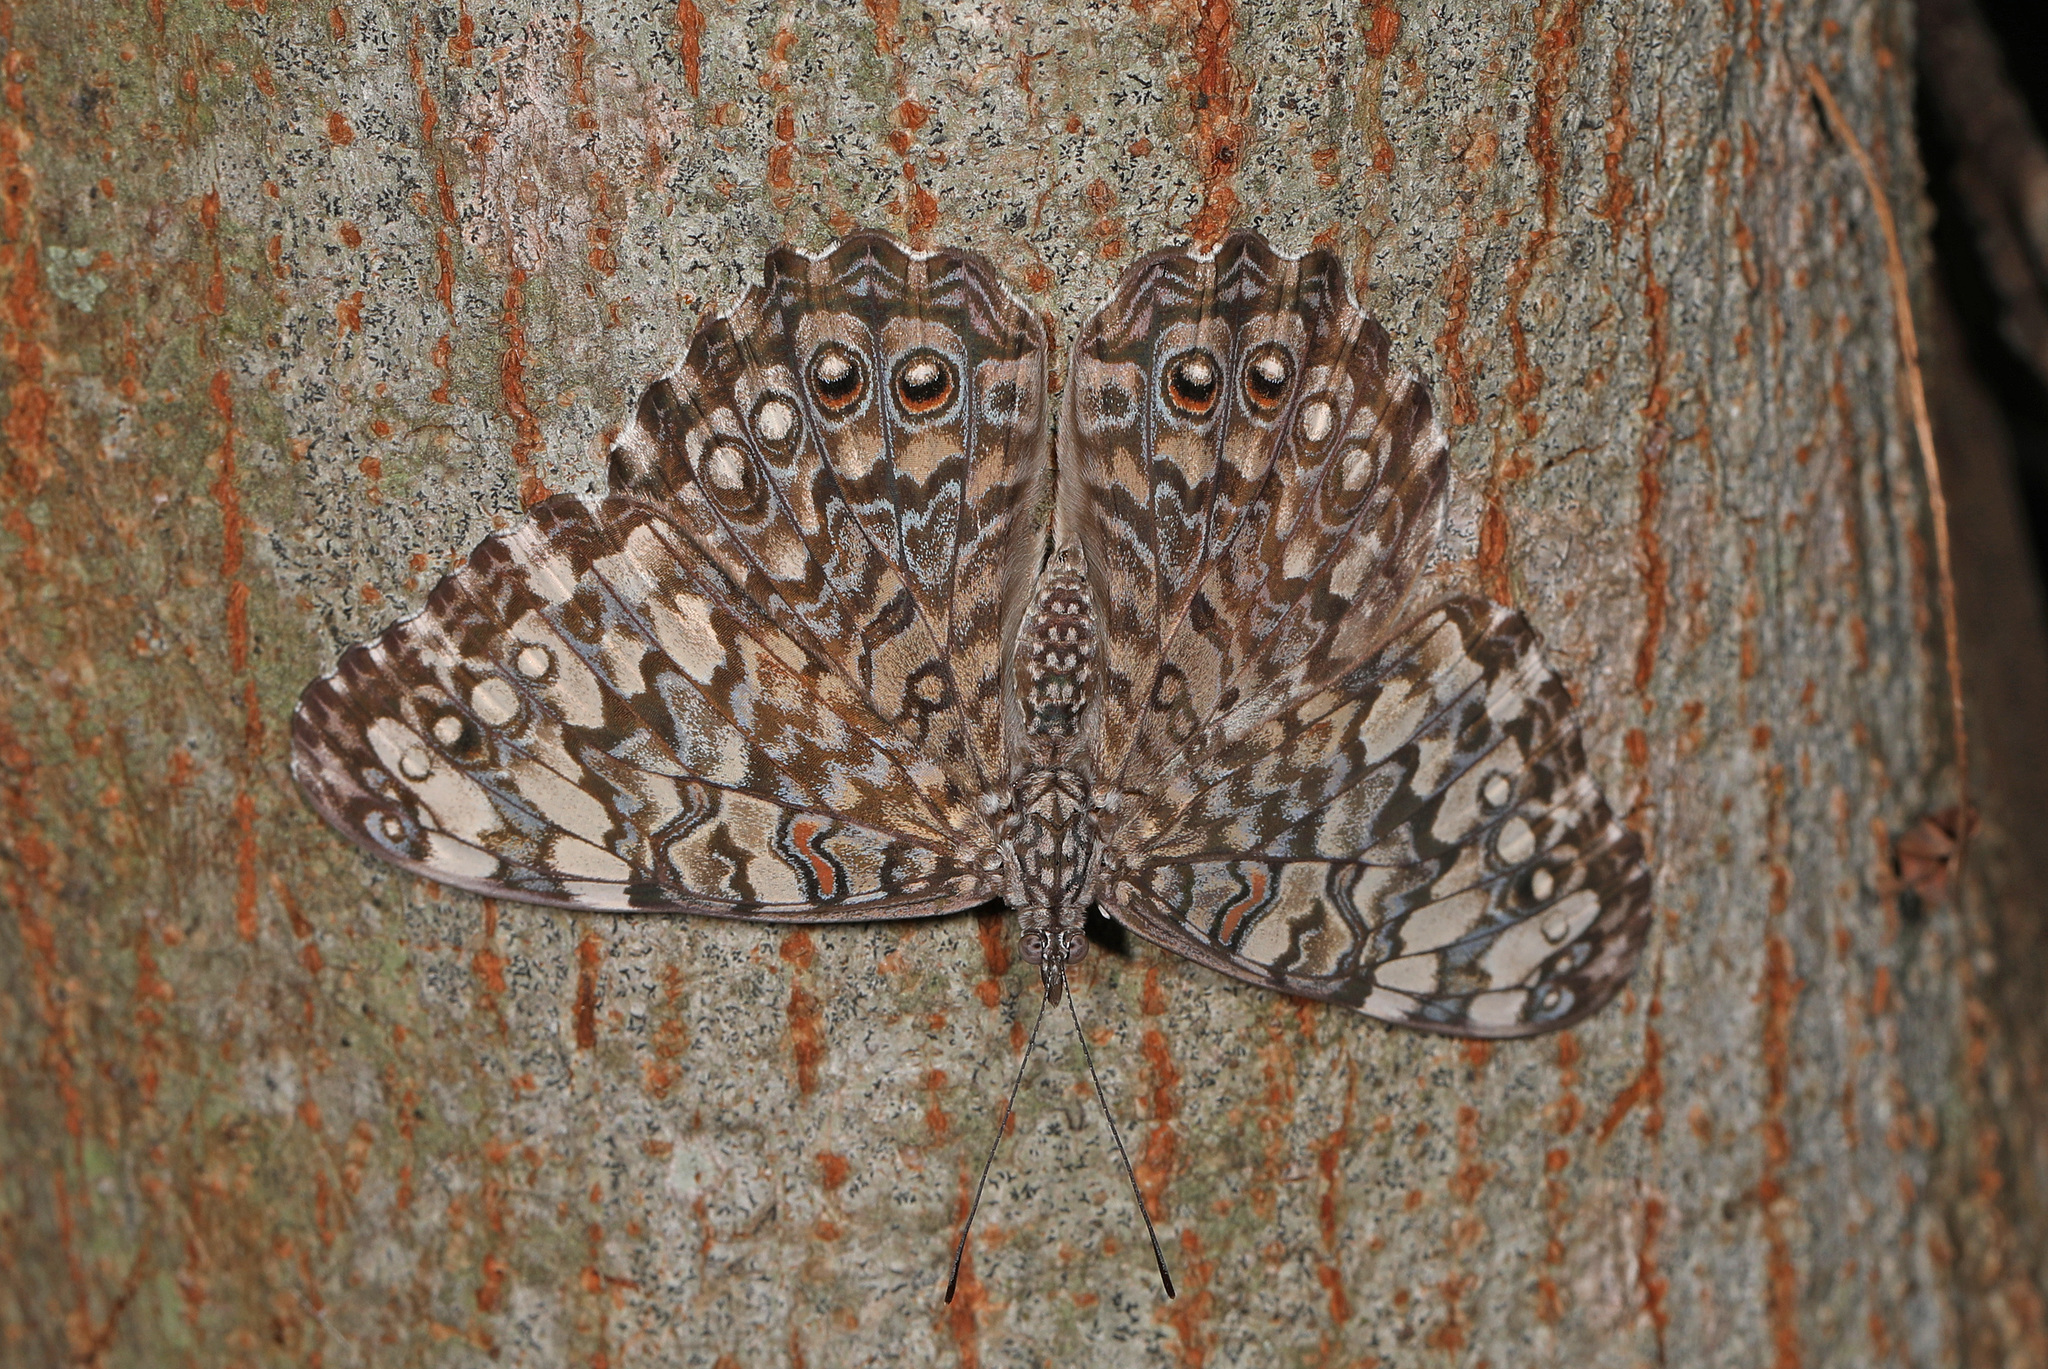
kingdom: Animalia
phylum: Arthropoda
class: Insecta
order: Lepidoptera
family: Nymphalidae
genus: Hamadryas
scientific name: Hamadryas februa
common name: Gray cracker
